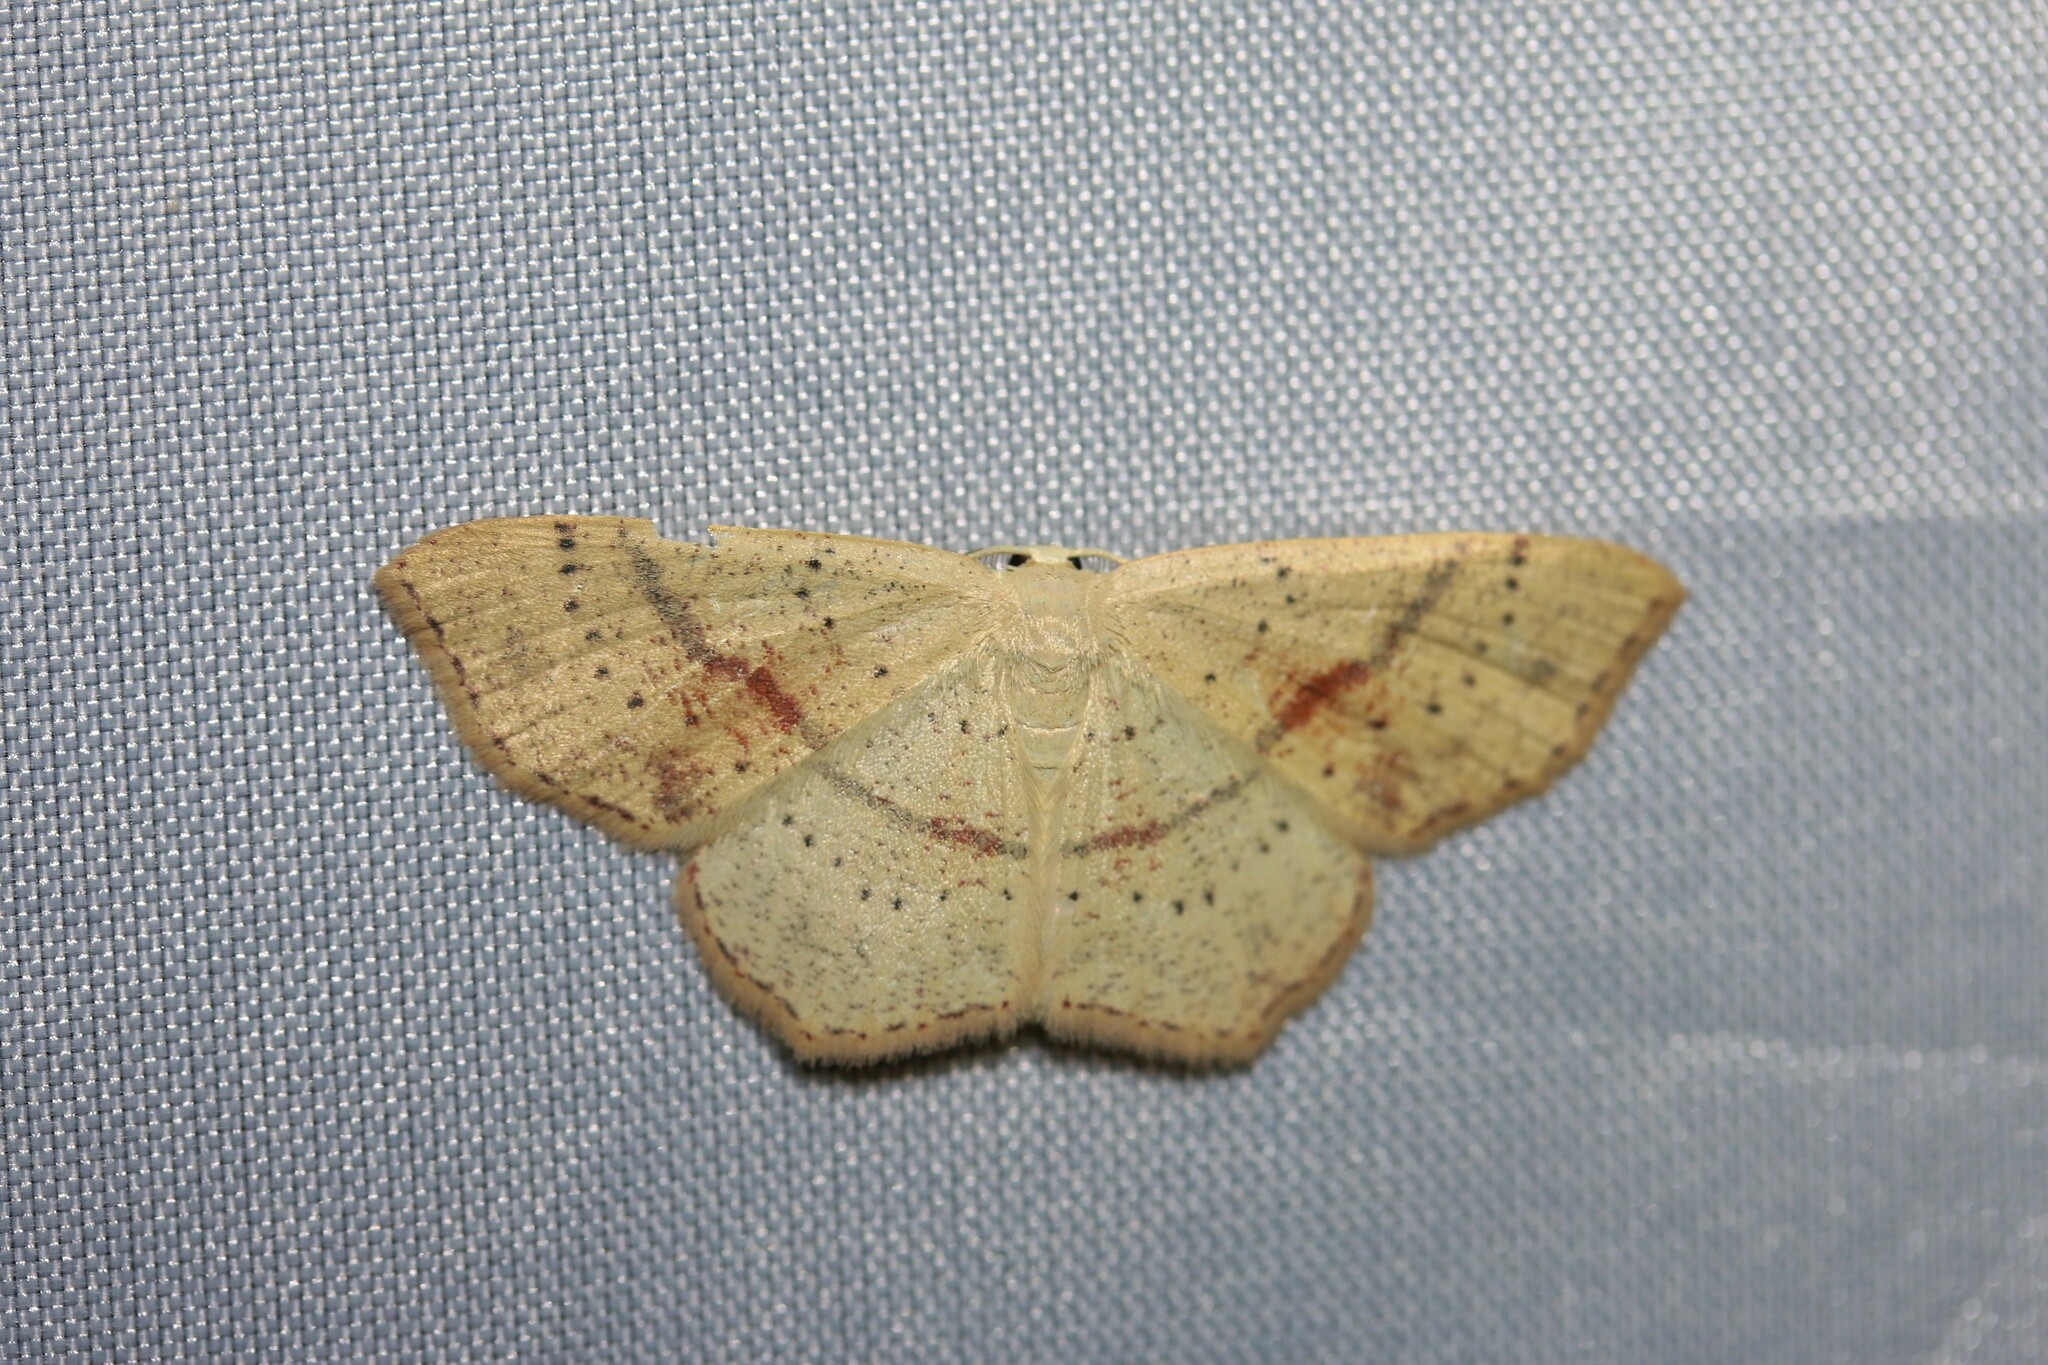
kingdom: Animalia
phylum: Arthropoda
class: Insecta
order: Lepidoptera
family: Geometridae
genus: Cyclophora
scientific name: Cyclophora punctaria
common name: Maiden's blush
